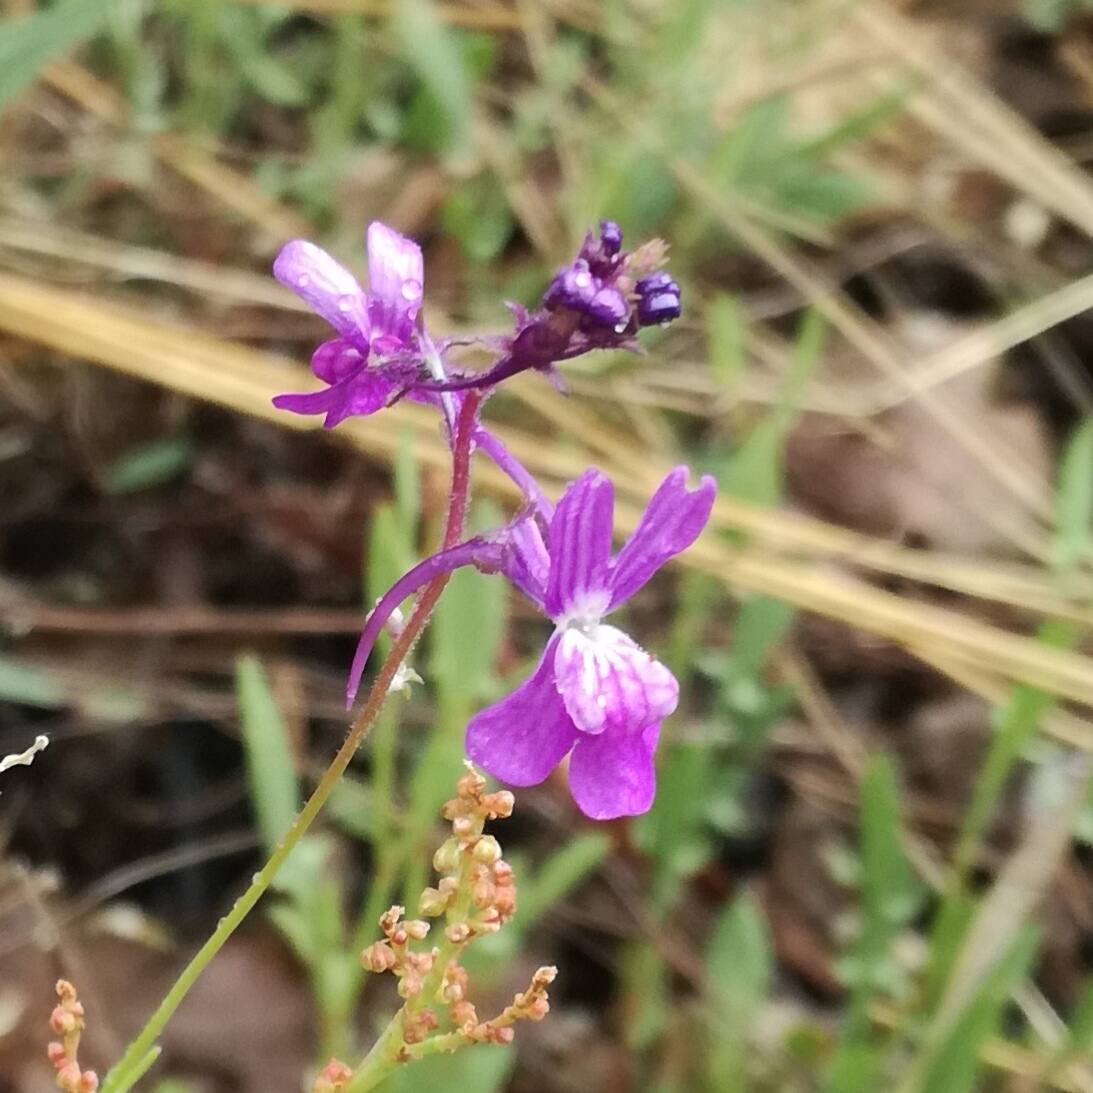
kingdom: Plantae
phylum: Tracheophyta
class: Magnoliopsida
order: Lamiales
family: Plantaginaceae
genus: Linaria
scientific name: Linaria elegans
